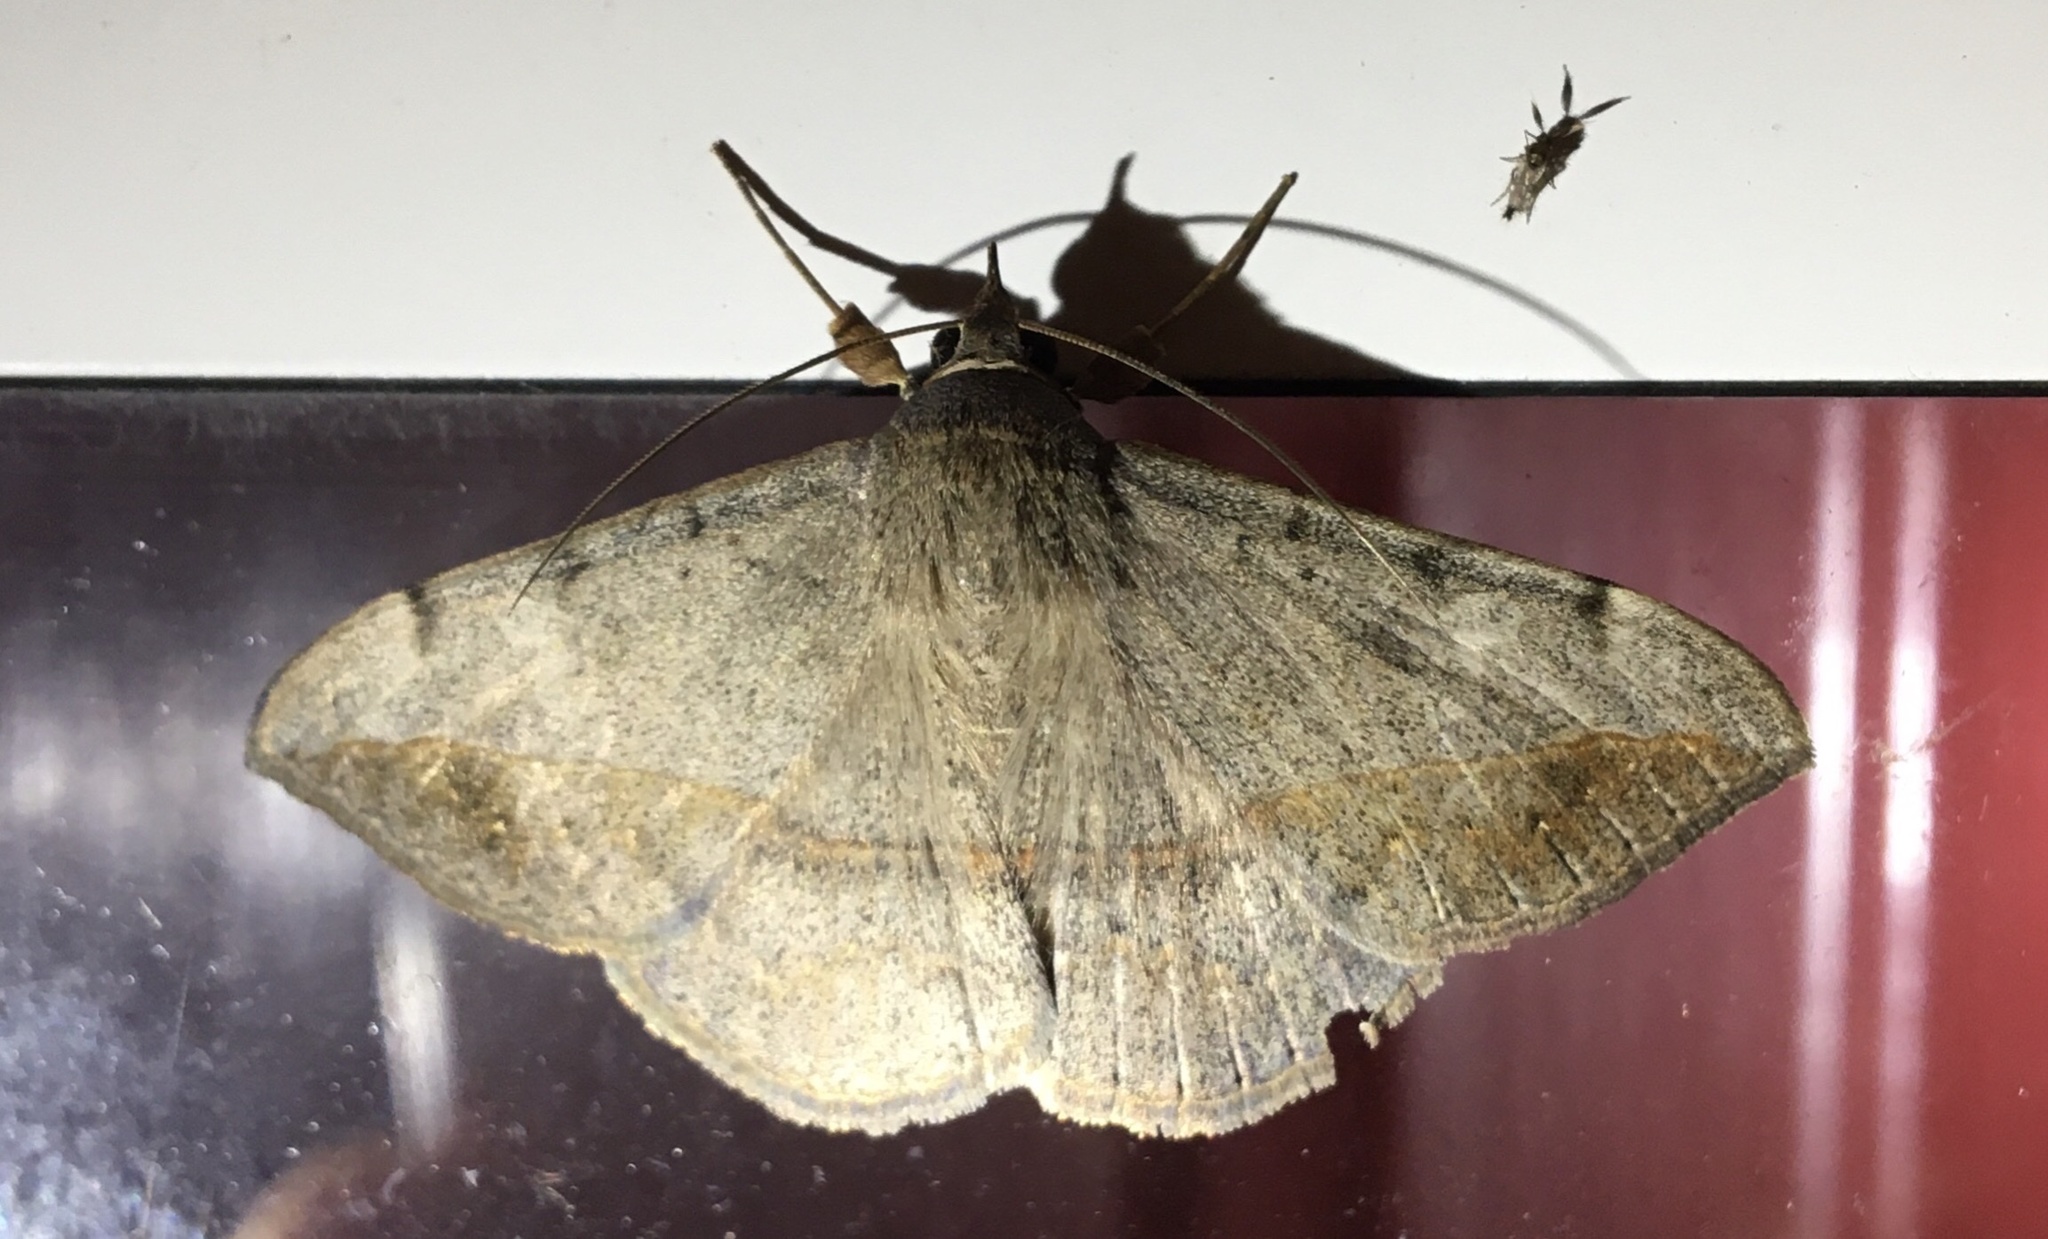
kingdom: Animalia
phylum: Arthropoda
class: Insecta
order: Lepidoptera
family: Erebidae
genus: Anticarsia
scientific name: Anticarsia gemmatalis
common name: Cutworm moth
